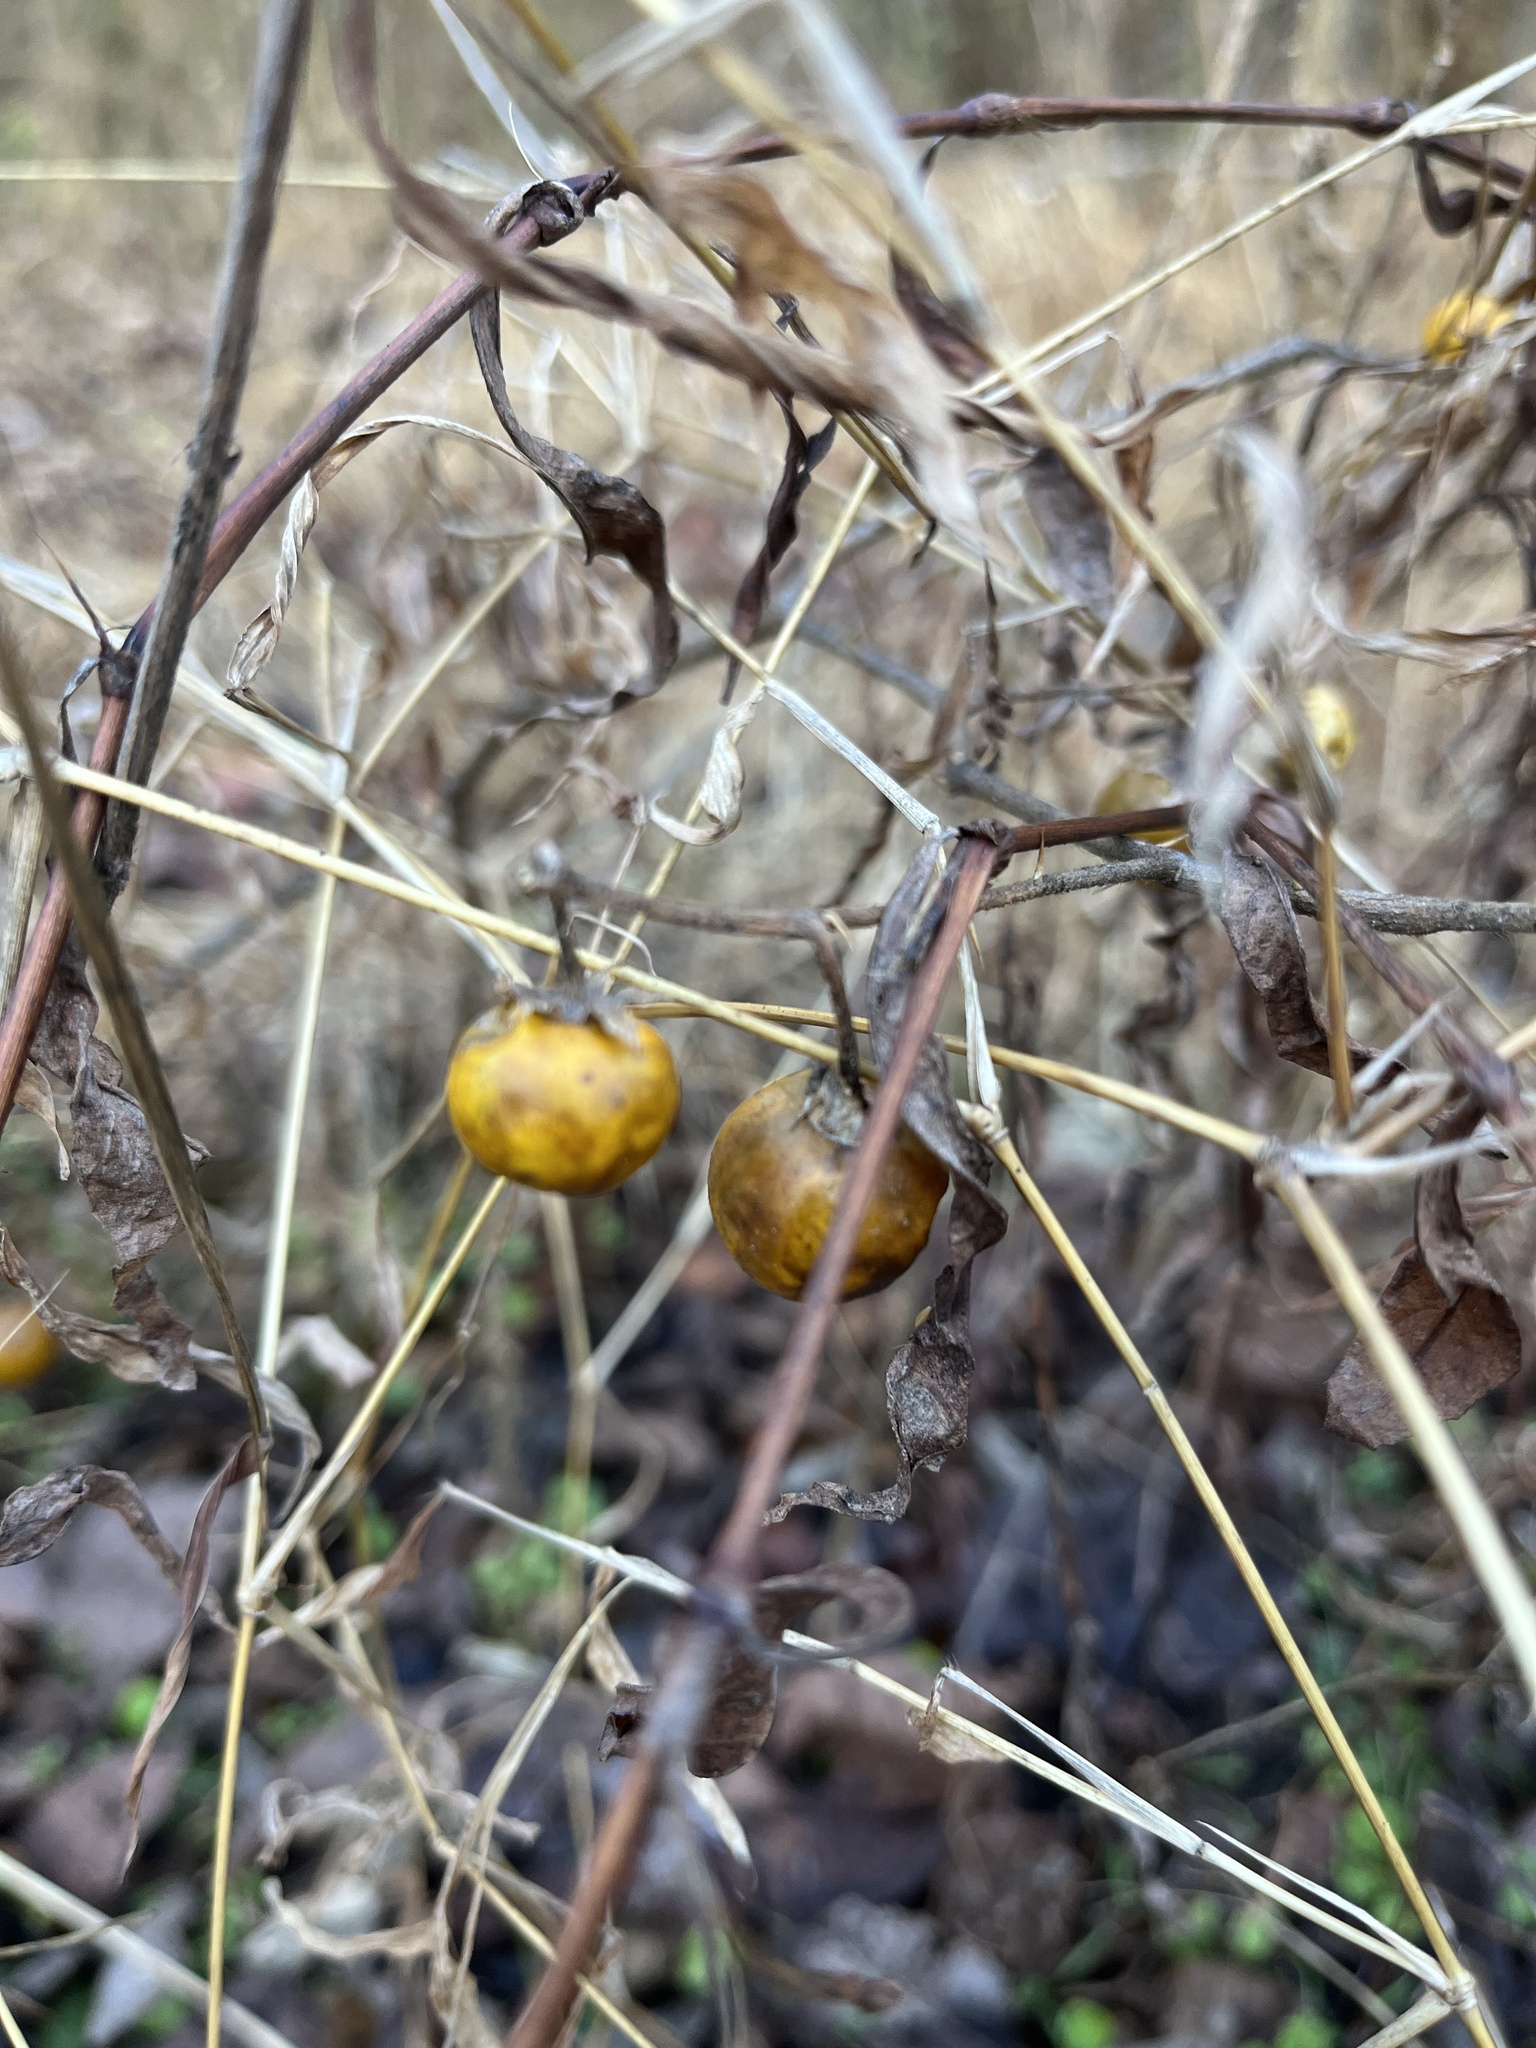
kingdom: Plantae
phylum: Tracheophyta
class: Magnoliopsida
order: Solanales
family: Solanaceae
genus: Solanum
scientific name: Solanum carolinense
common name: Horse-nettle
